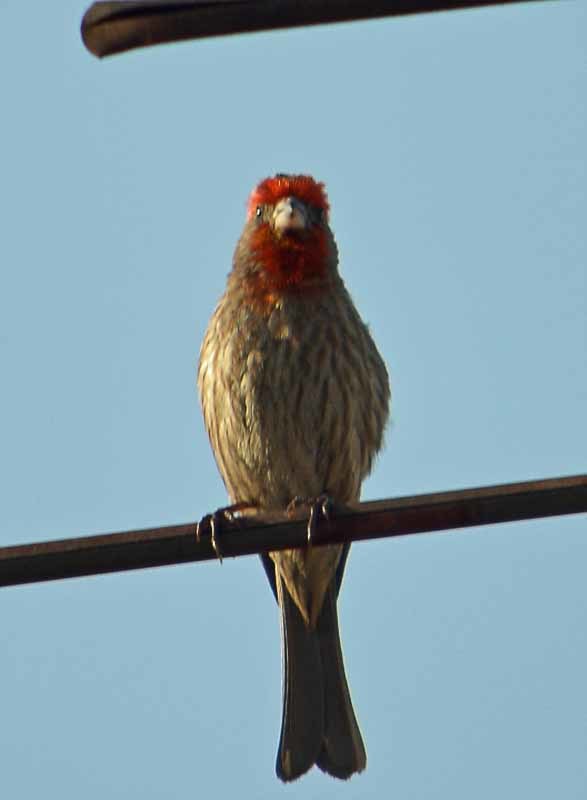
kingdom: Animalia
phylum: Chordata
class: Aves
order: Passeriformes
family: Fringillidae
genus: Haemorhous
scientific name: Haemorhous mexicanus
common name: House finch
